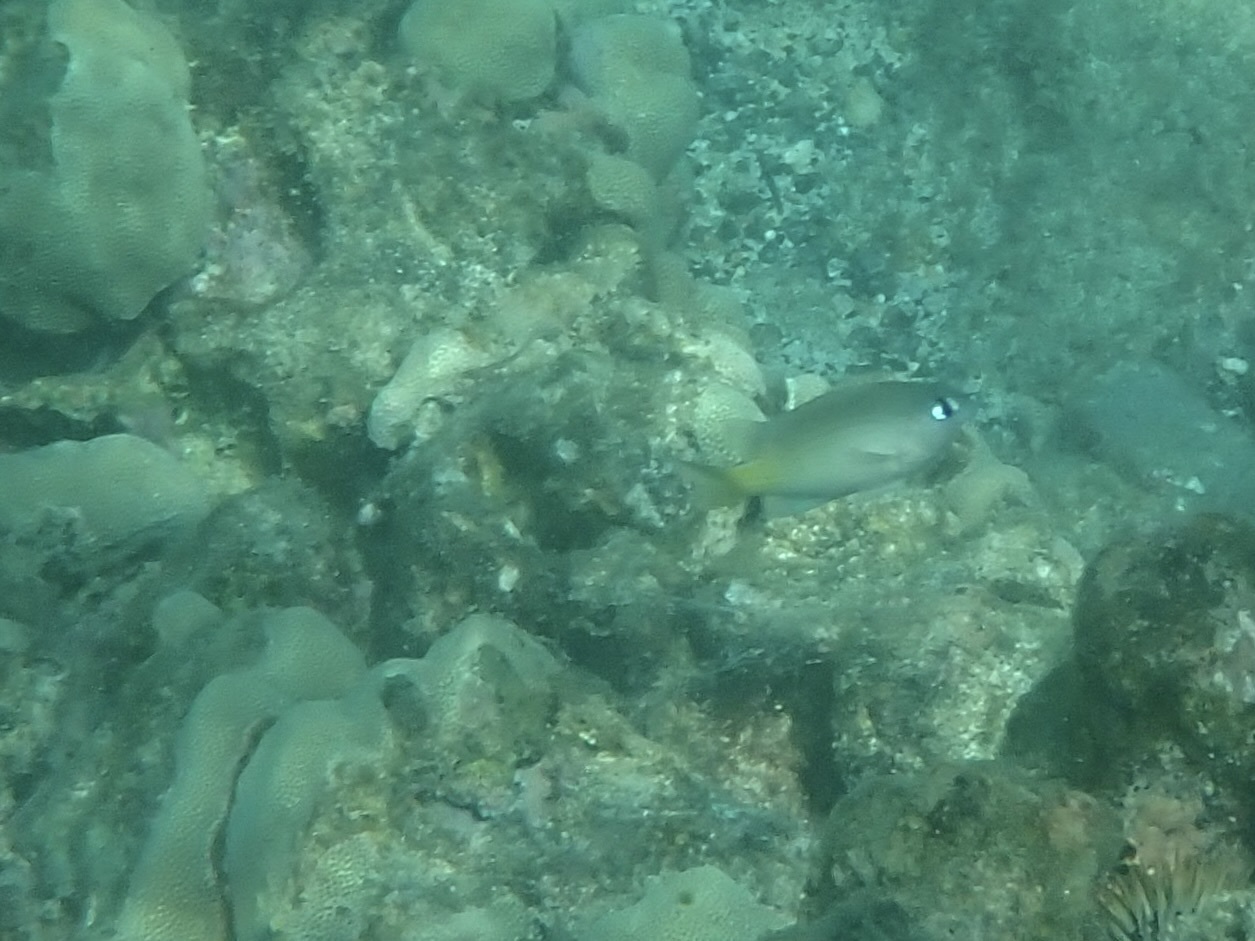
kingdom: Animalia
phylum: Chordata
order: Perciformes
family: Pomacentridae
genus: Plectroglyphidodon
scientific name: Plectroglyphidodon imparipennis
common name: Brighteye damsel
